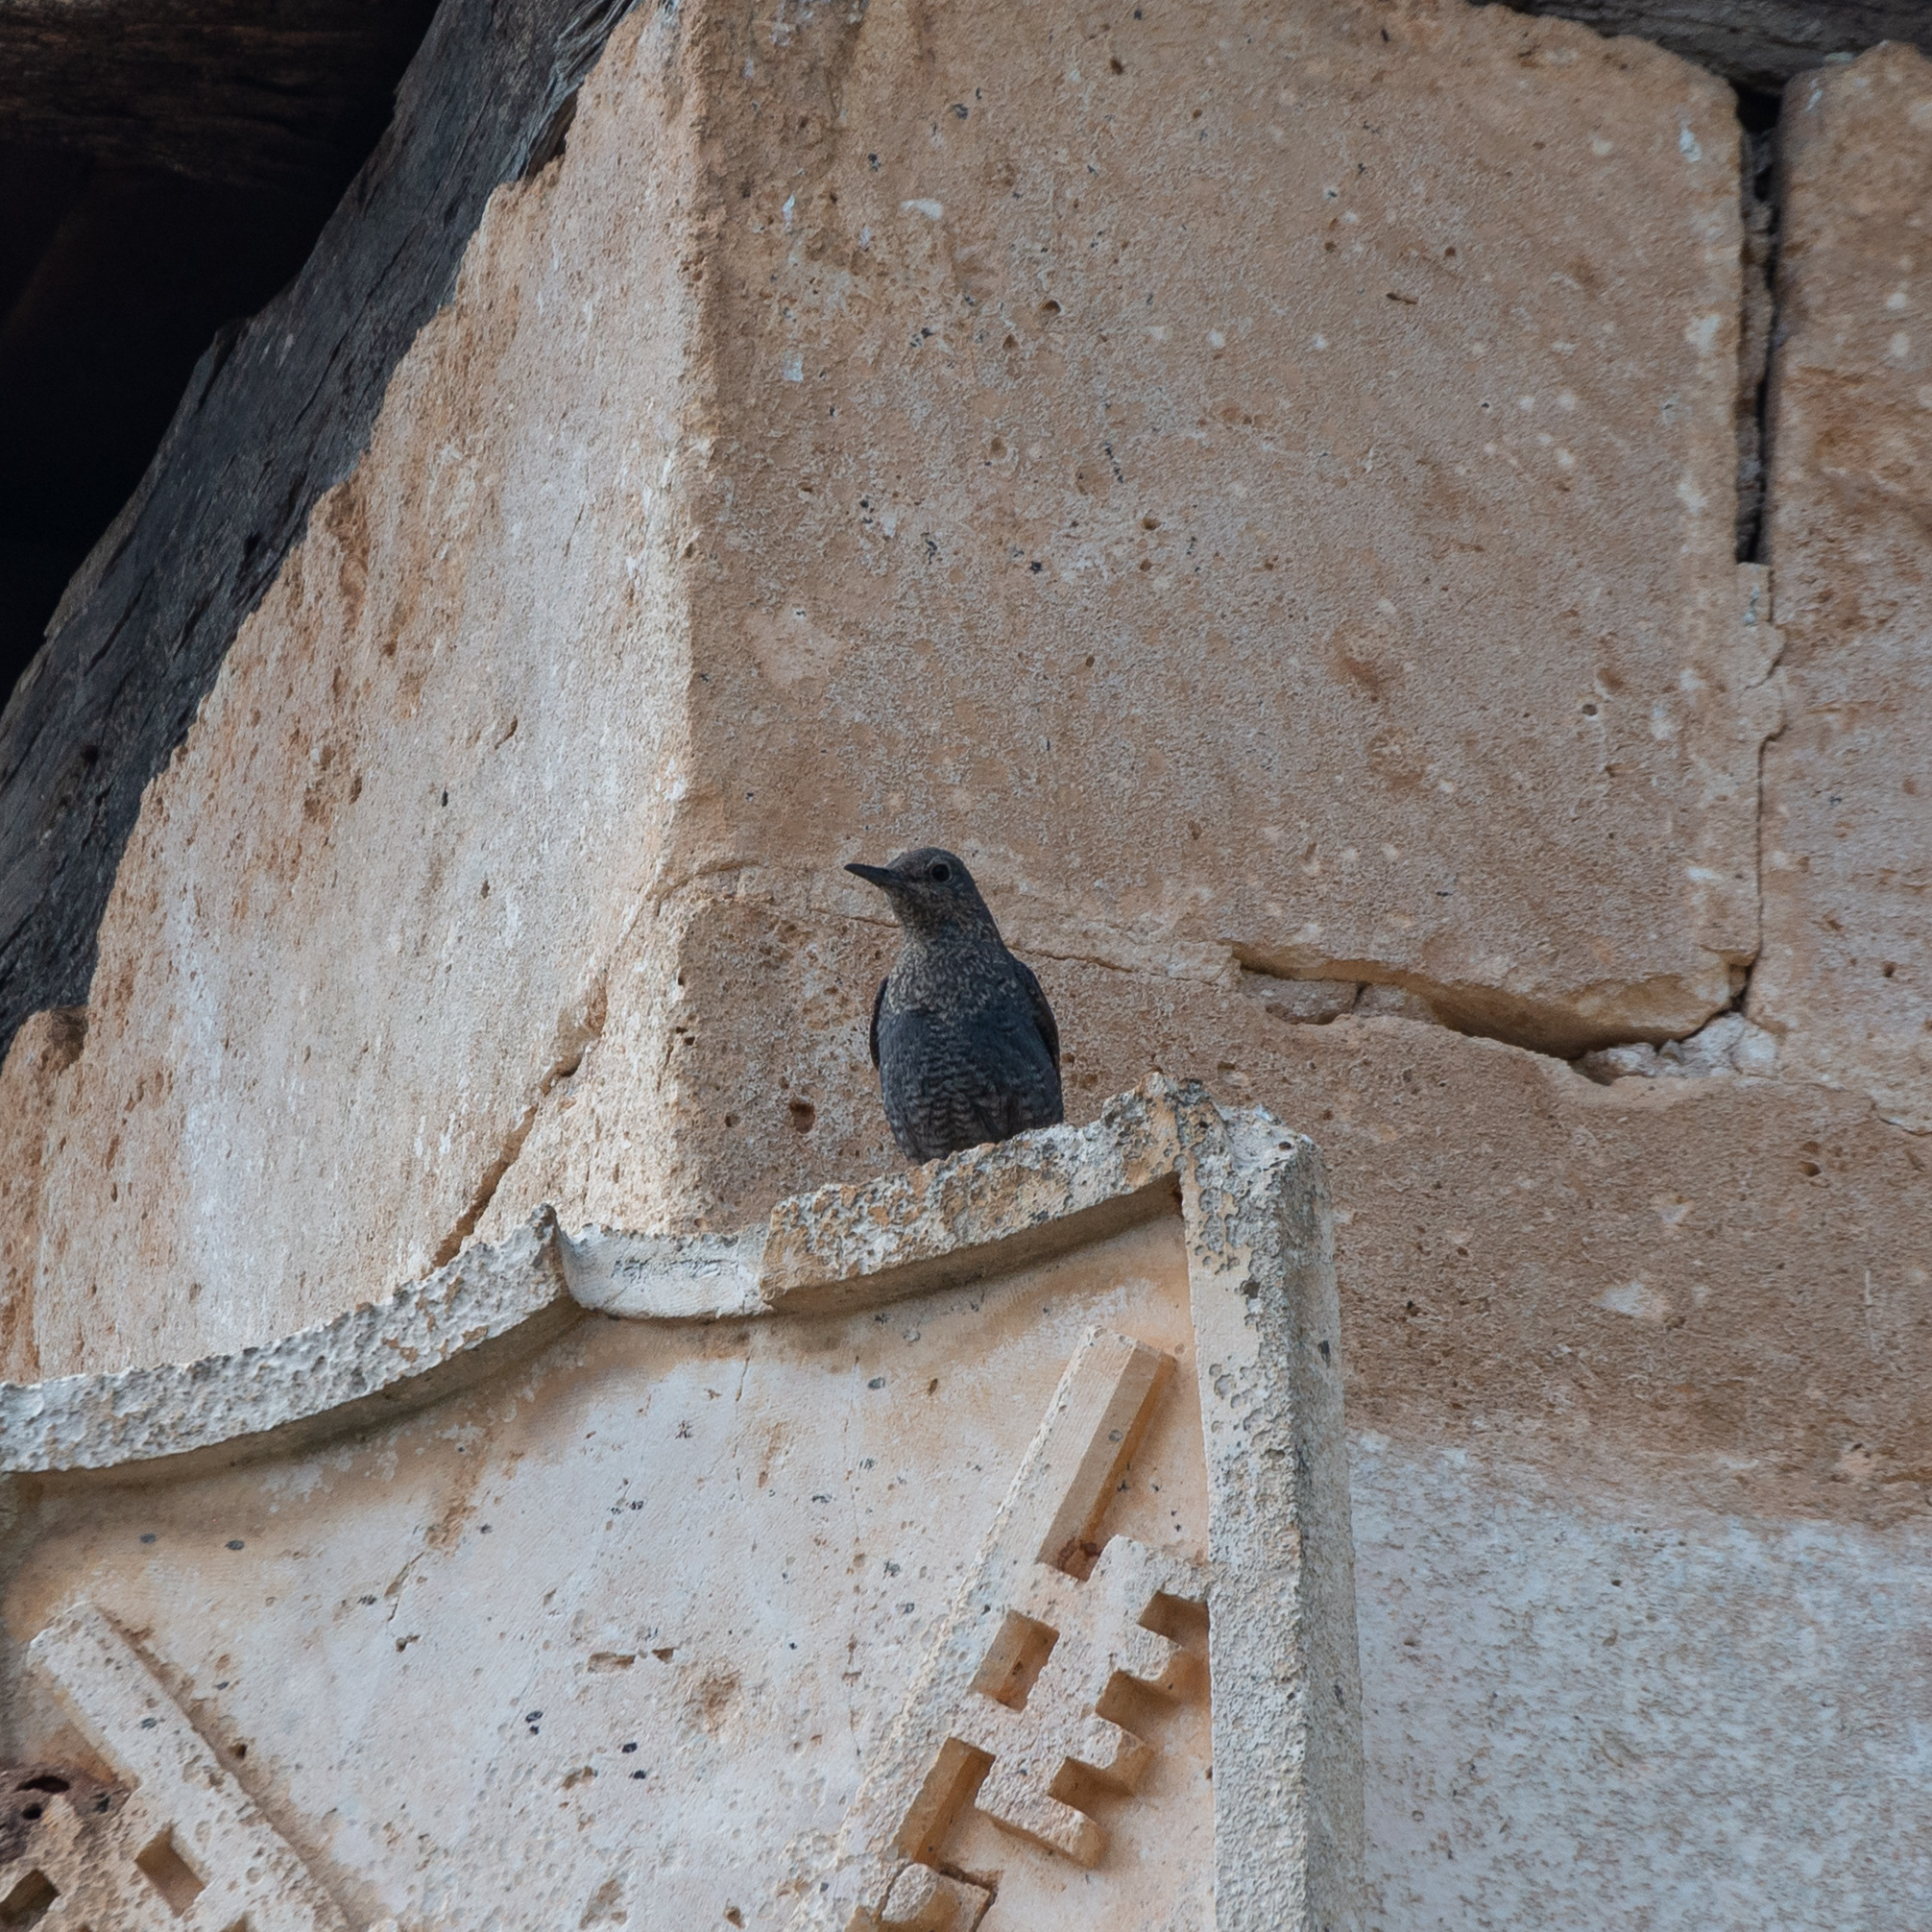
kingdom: Animalia
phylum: Chordata
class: Aves
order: Passeriformes
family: Muscicapidae
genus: Monticola
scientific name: Monticola solitarius
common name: Blue rock thrush
